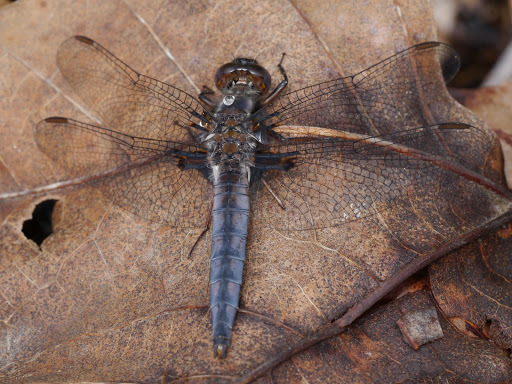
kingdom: Animalia
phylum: Arthropoda
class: Insecta
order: Odonata
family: Libellulidae
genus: Ladona
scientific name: Ladona deplanata
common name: Blue corporal
